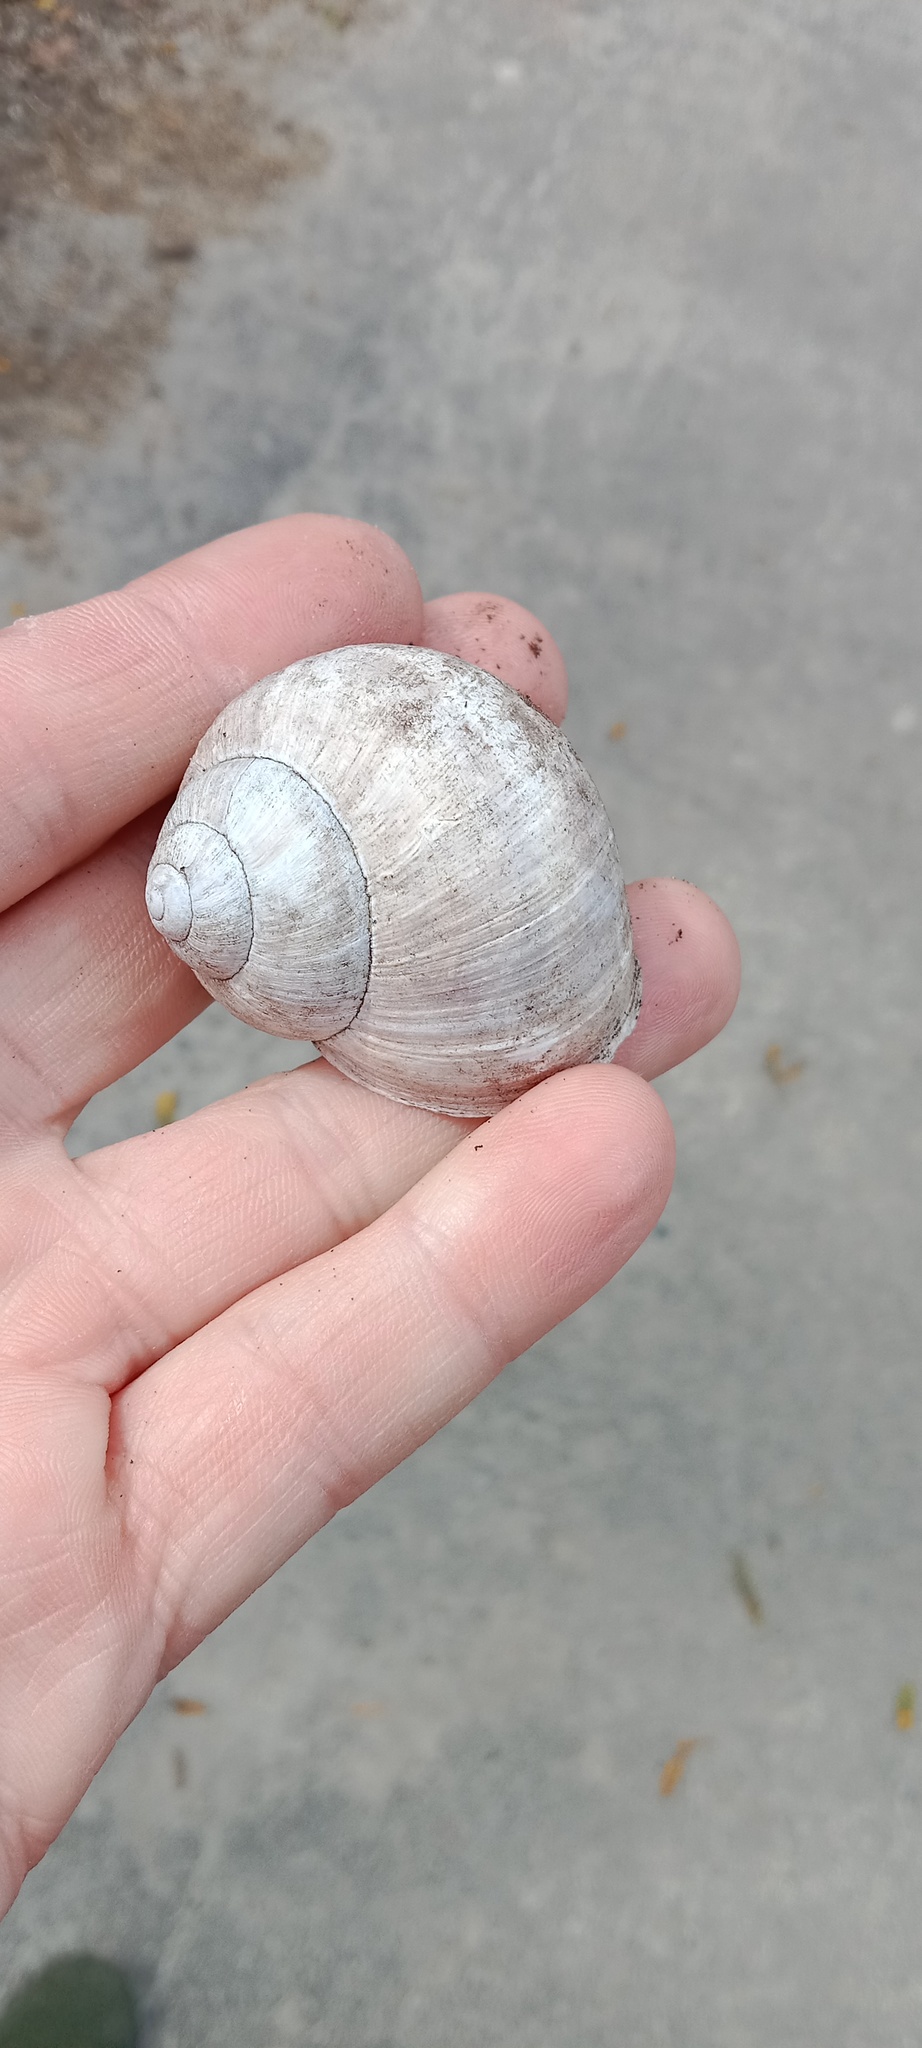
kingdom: Animalia
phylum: Mollusca
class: Gastropoda
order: Stylommatophora
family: Helicidae
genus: Helix
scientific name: Helix pomatia
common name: Roman snail
